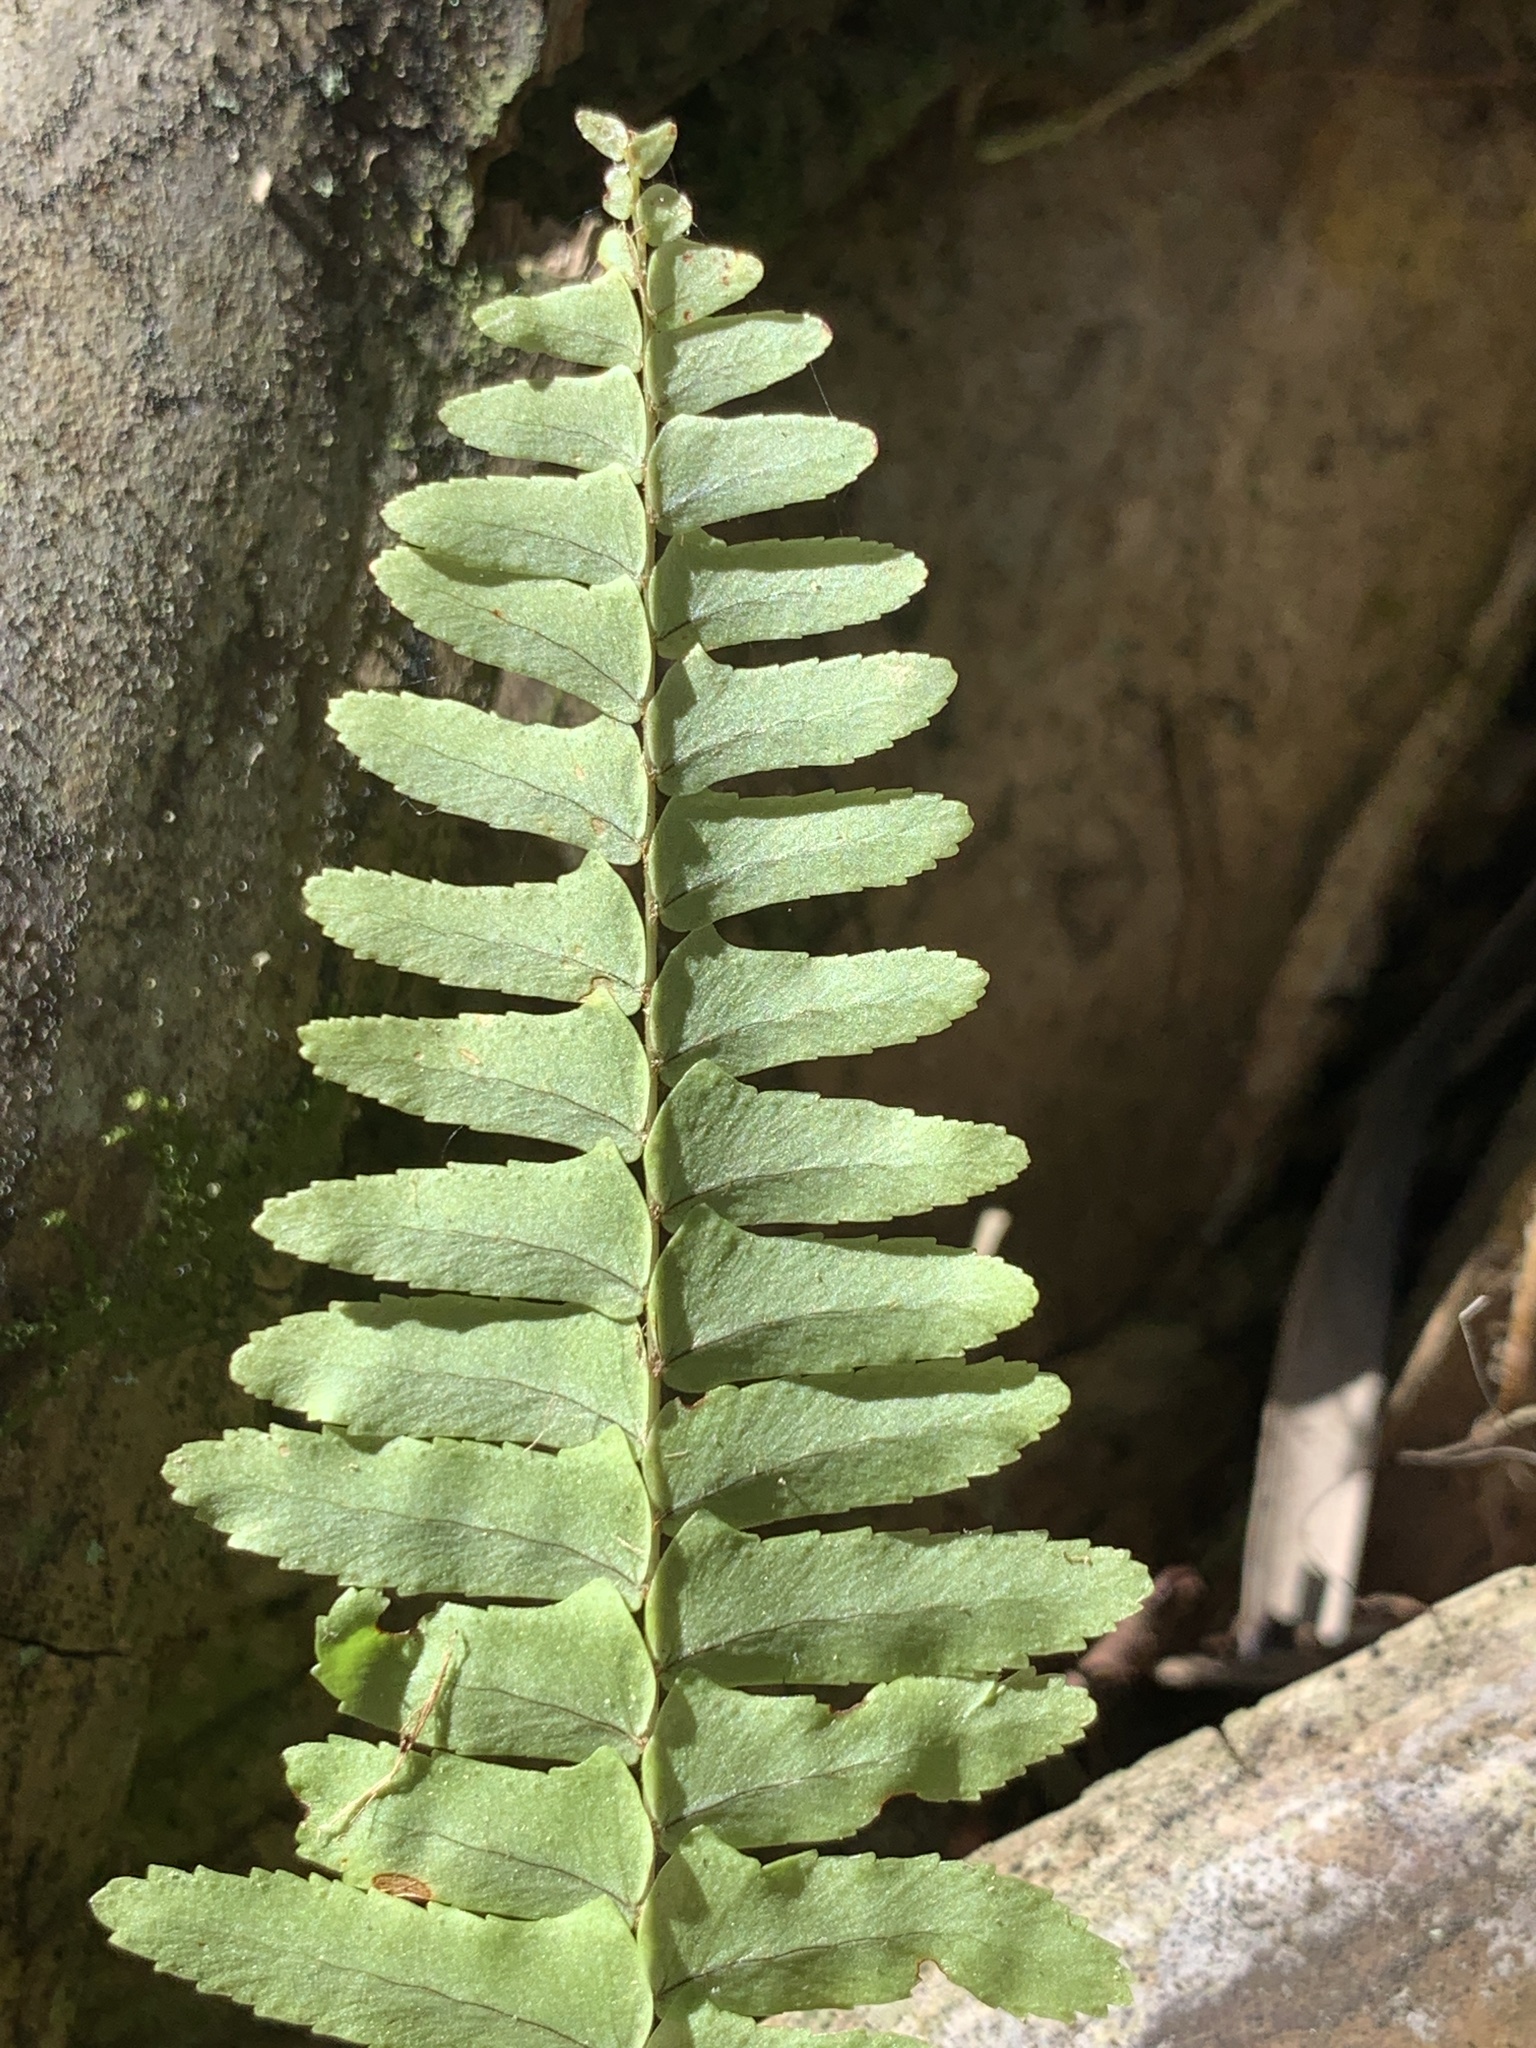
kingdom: Plantae
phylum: Tracheophyta
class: Polypodiopsida
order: Polypodiales
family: Nephrolepidaceae
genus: Nephrolepis
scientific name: Nephrolepis cordifolia
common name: Narrow swordfern
